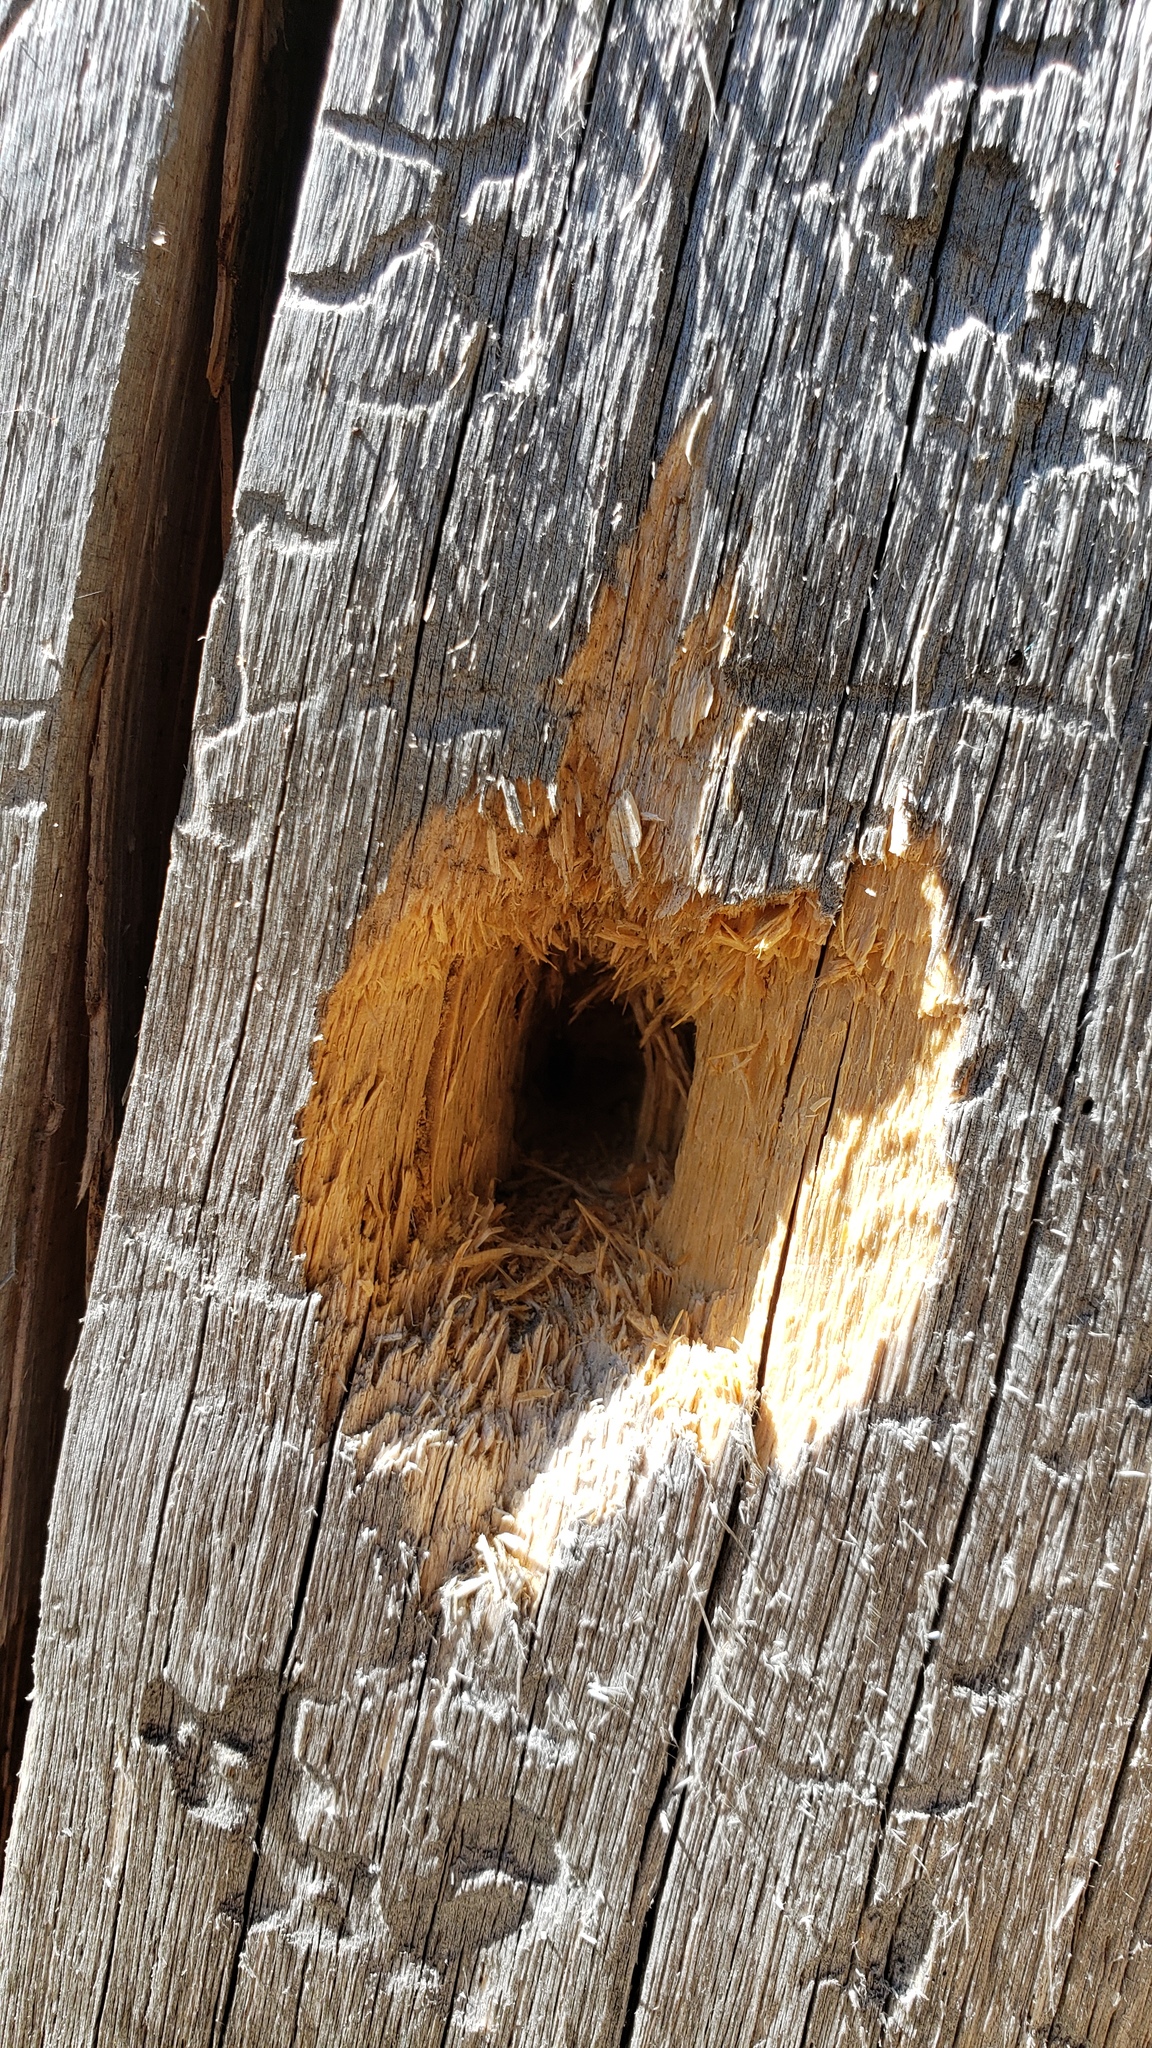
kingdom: Animalia
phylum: Chordata
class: Aves
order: Piciformes
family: Picidae
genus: Dryocopus
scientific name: Dryocopus pileatus
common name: Pileated woodpecker
